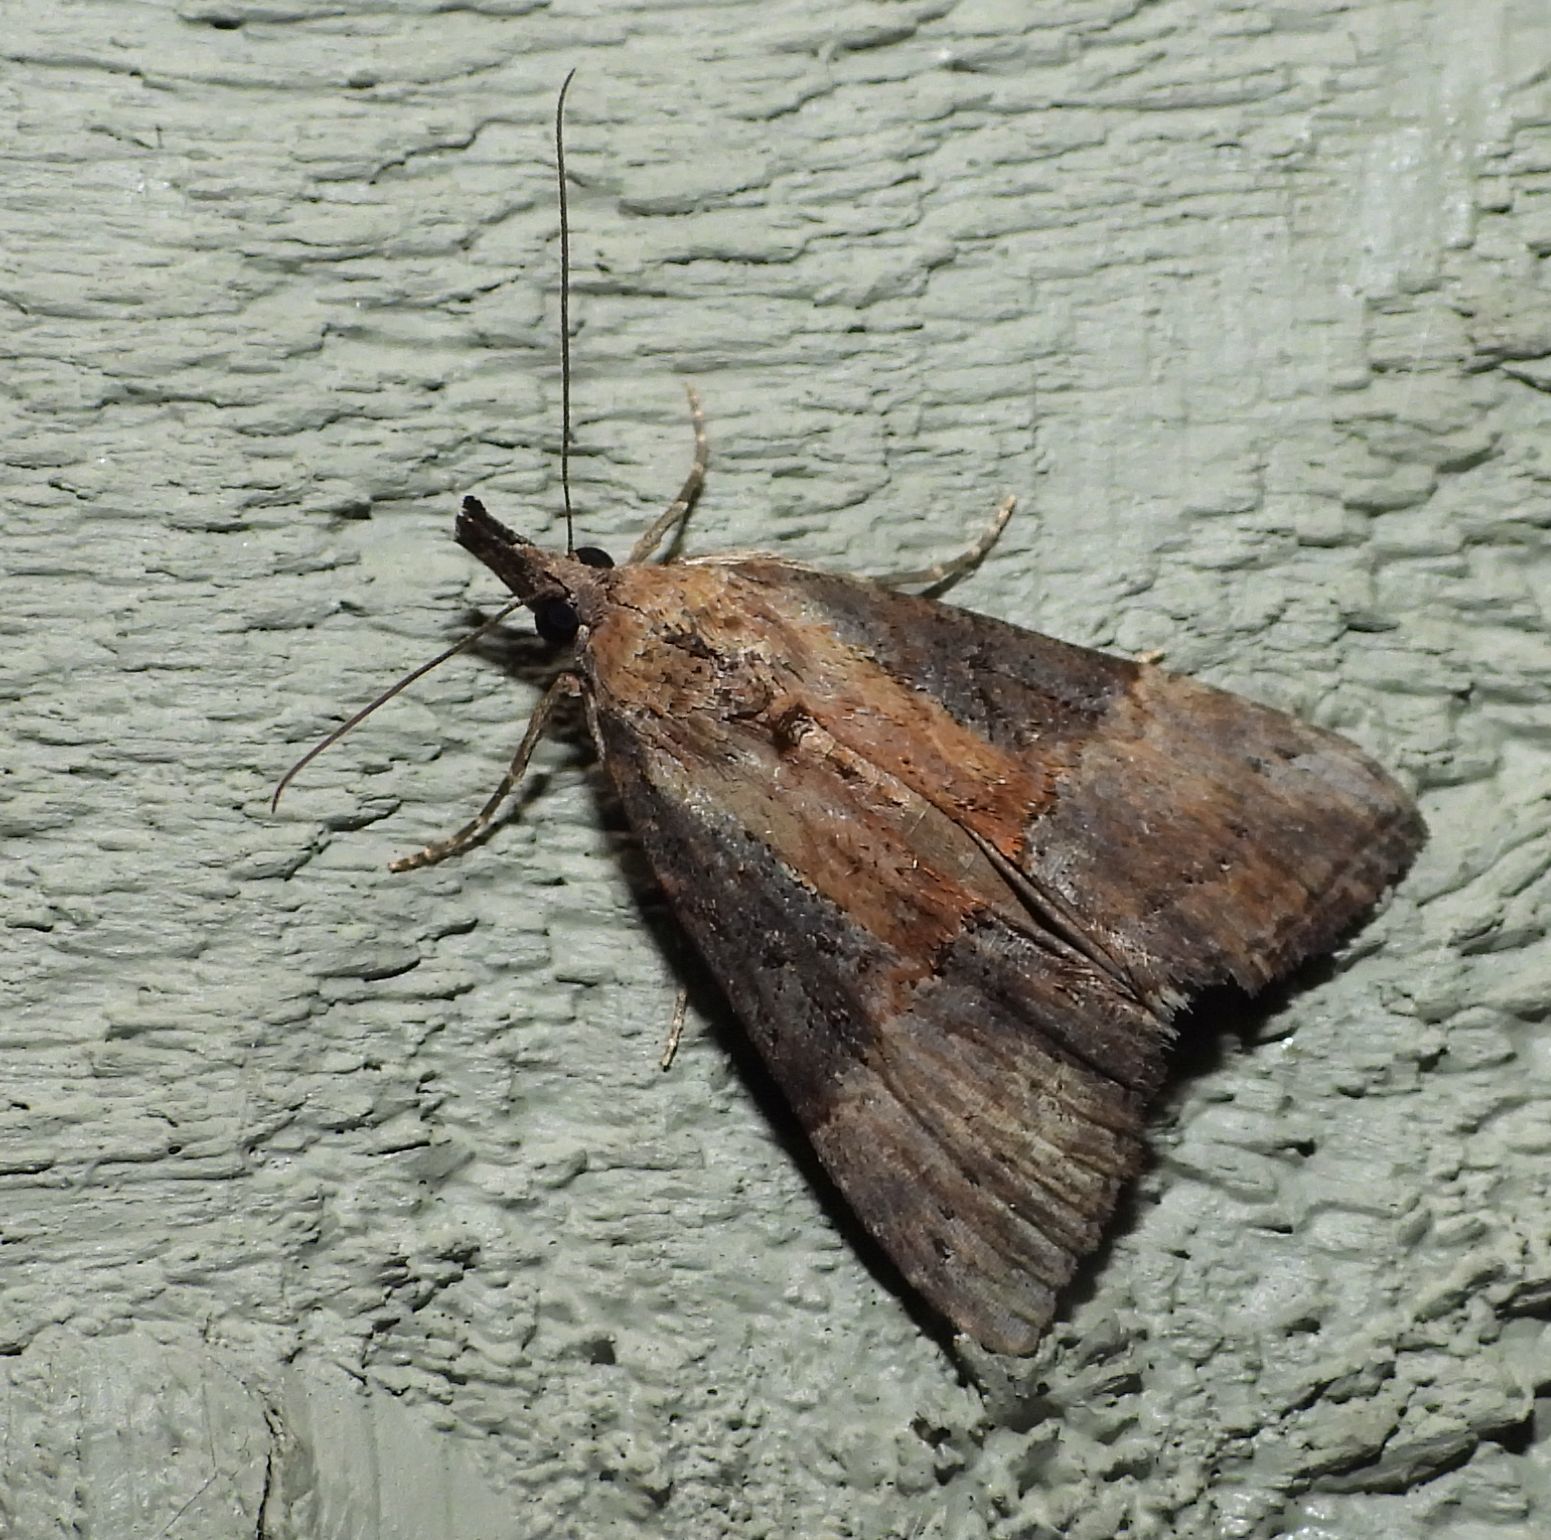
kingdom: Animalia
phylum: Arthropoda
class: Insecta
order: Lepidoptera
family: Erebidae
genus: Hypena
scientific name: Hypena scabra
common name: Green cloverworm
